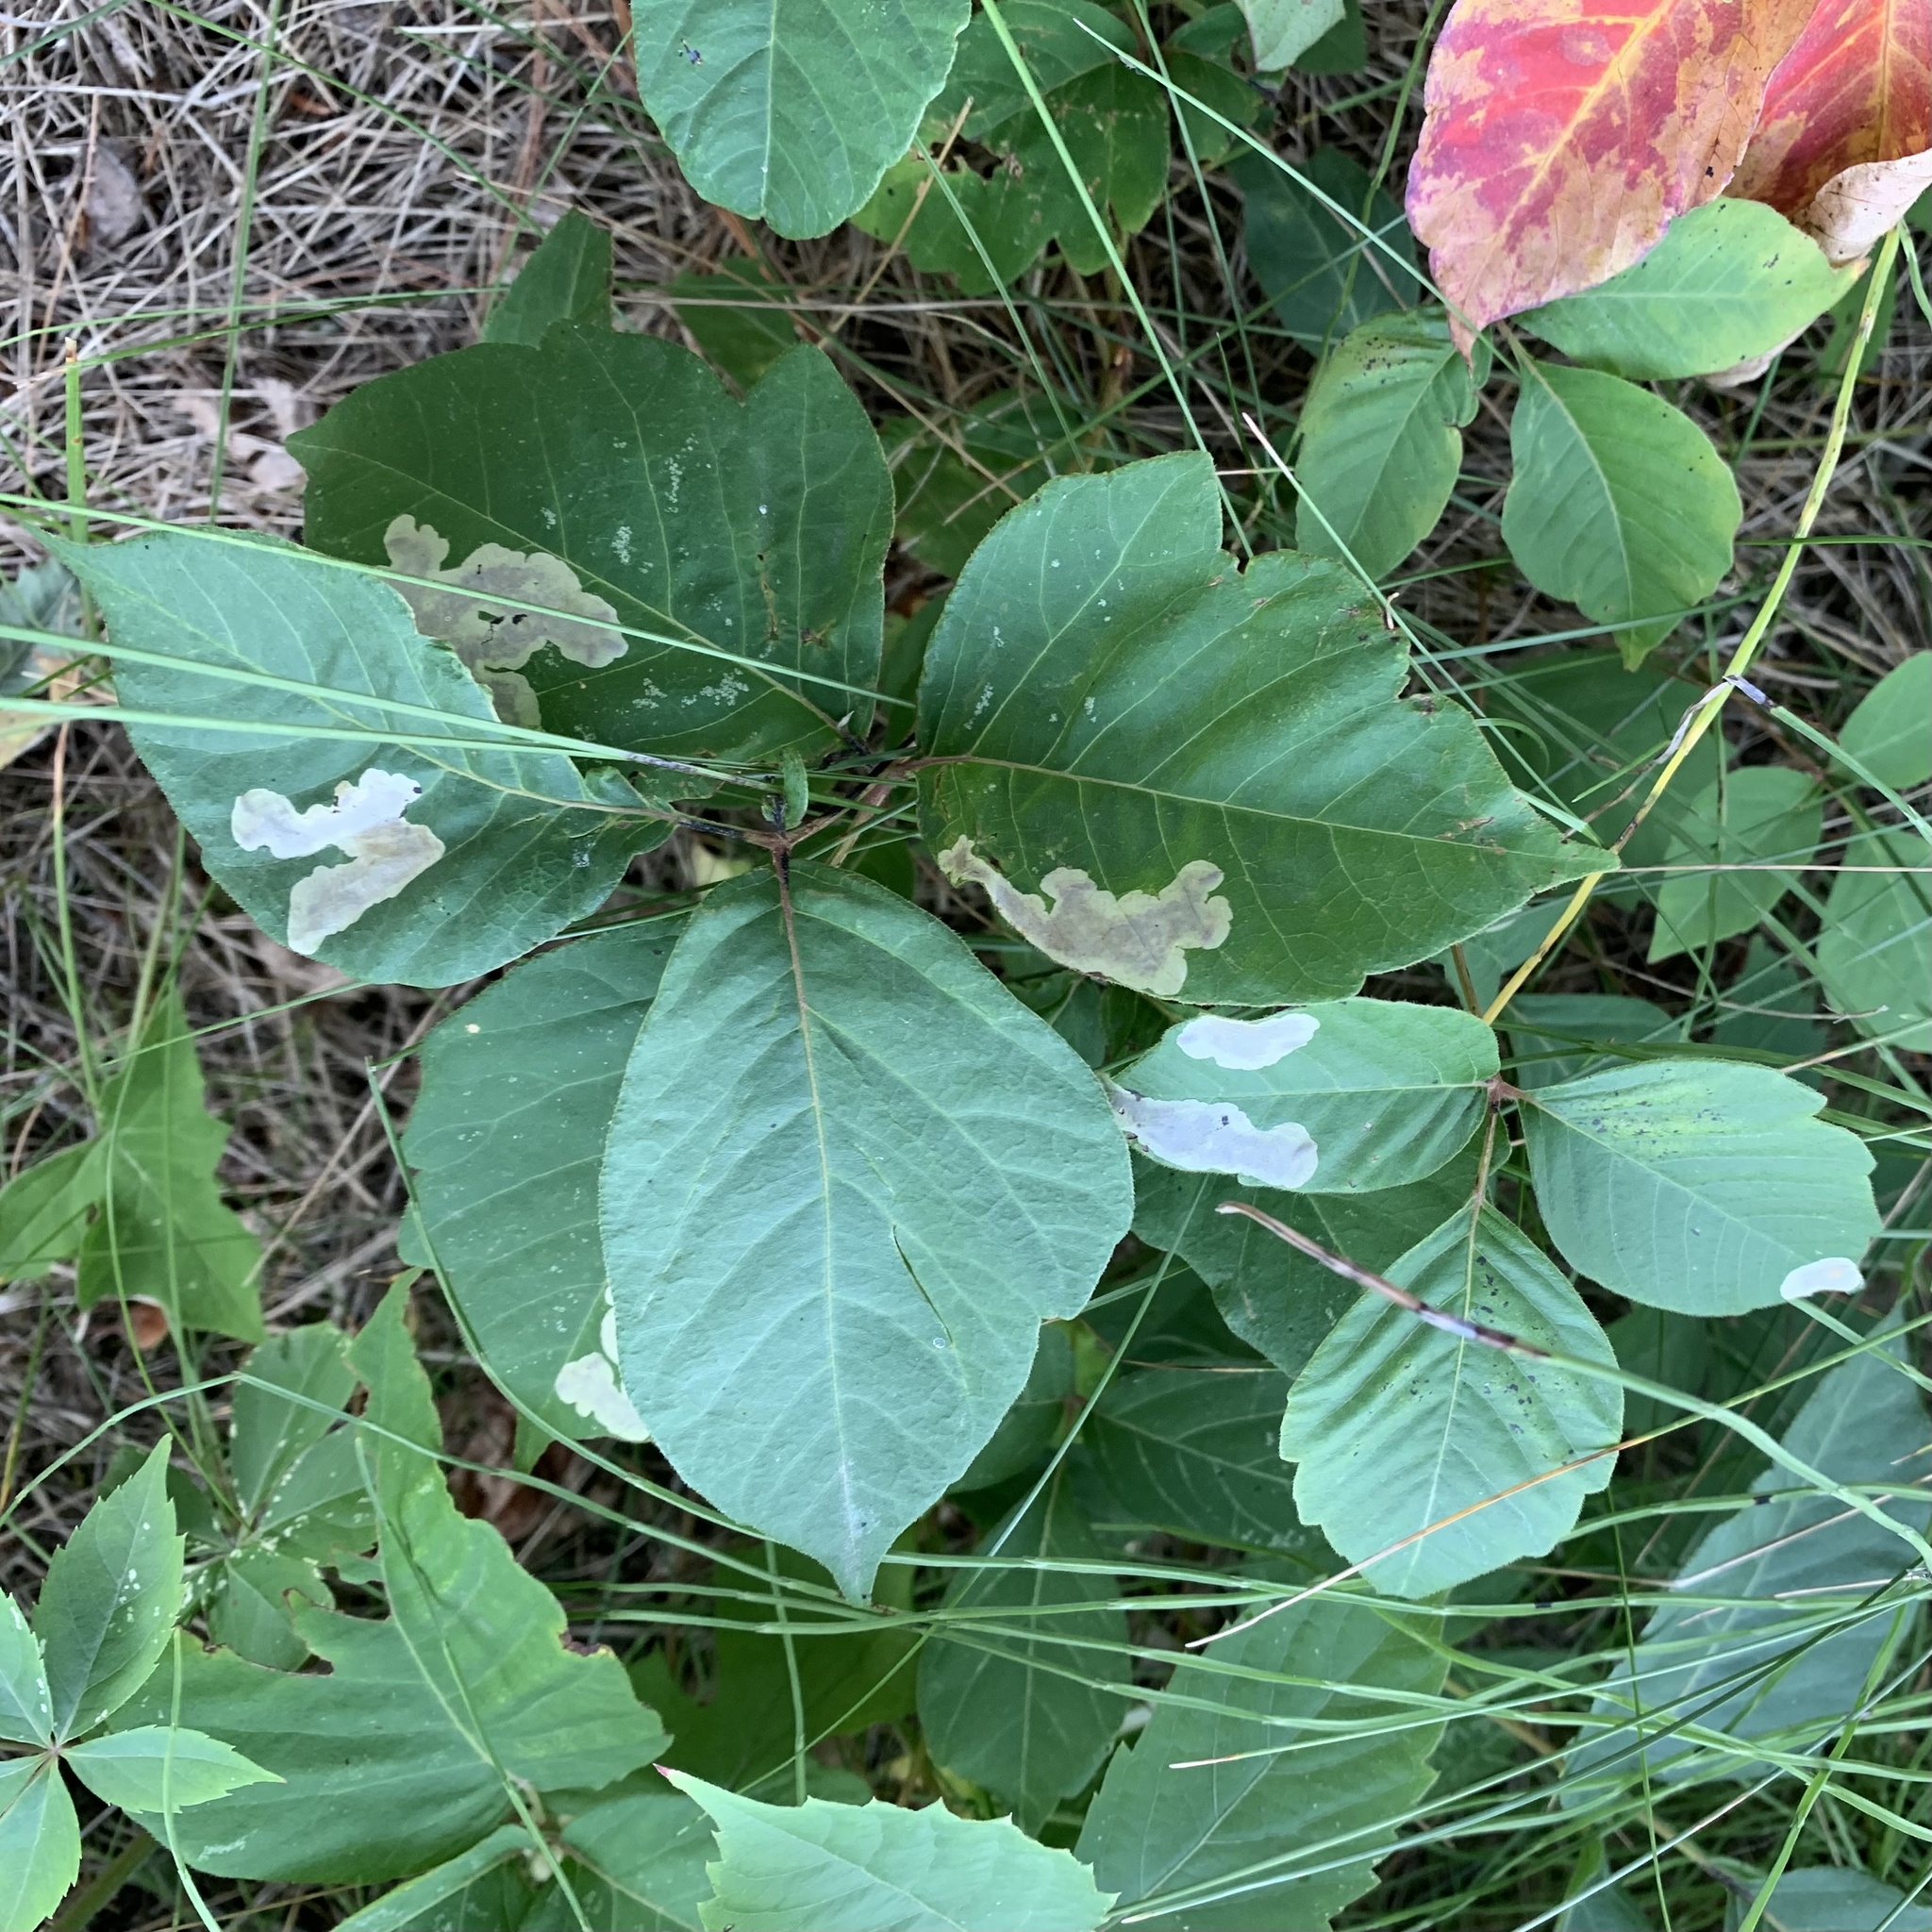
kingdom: Animalia
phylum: Arthropoda
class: Insecta
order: Lepidoptera
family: Gracillariidae
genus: Cameraria
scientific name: Cameraria guttifinitella
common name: Poison ivy leaf-miner moth
